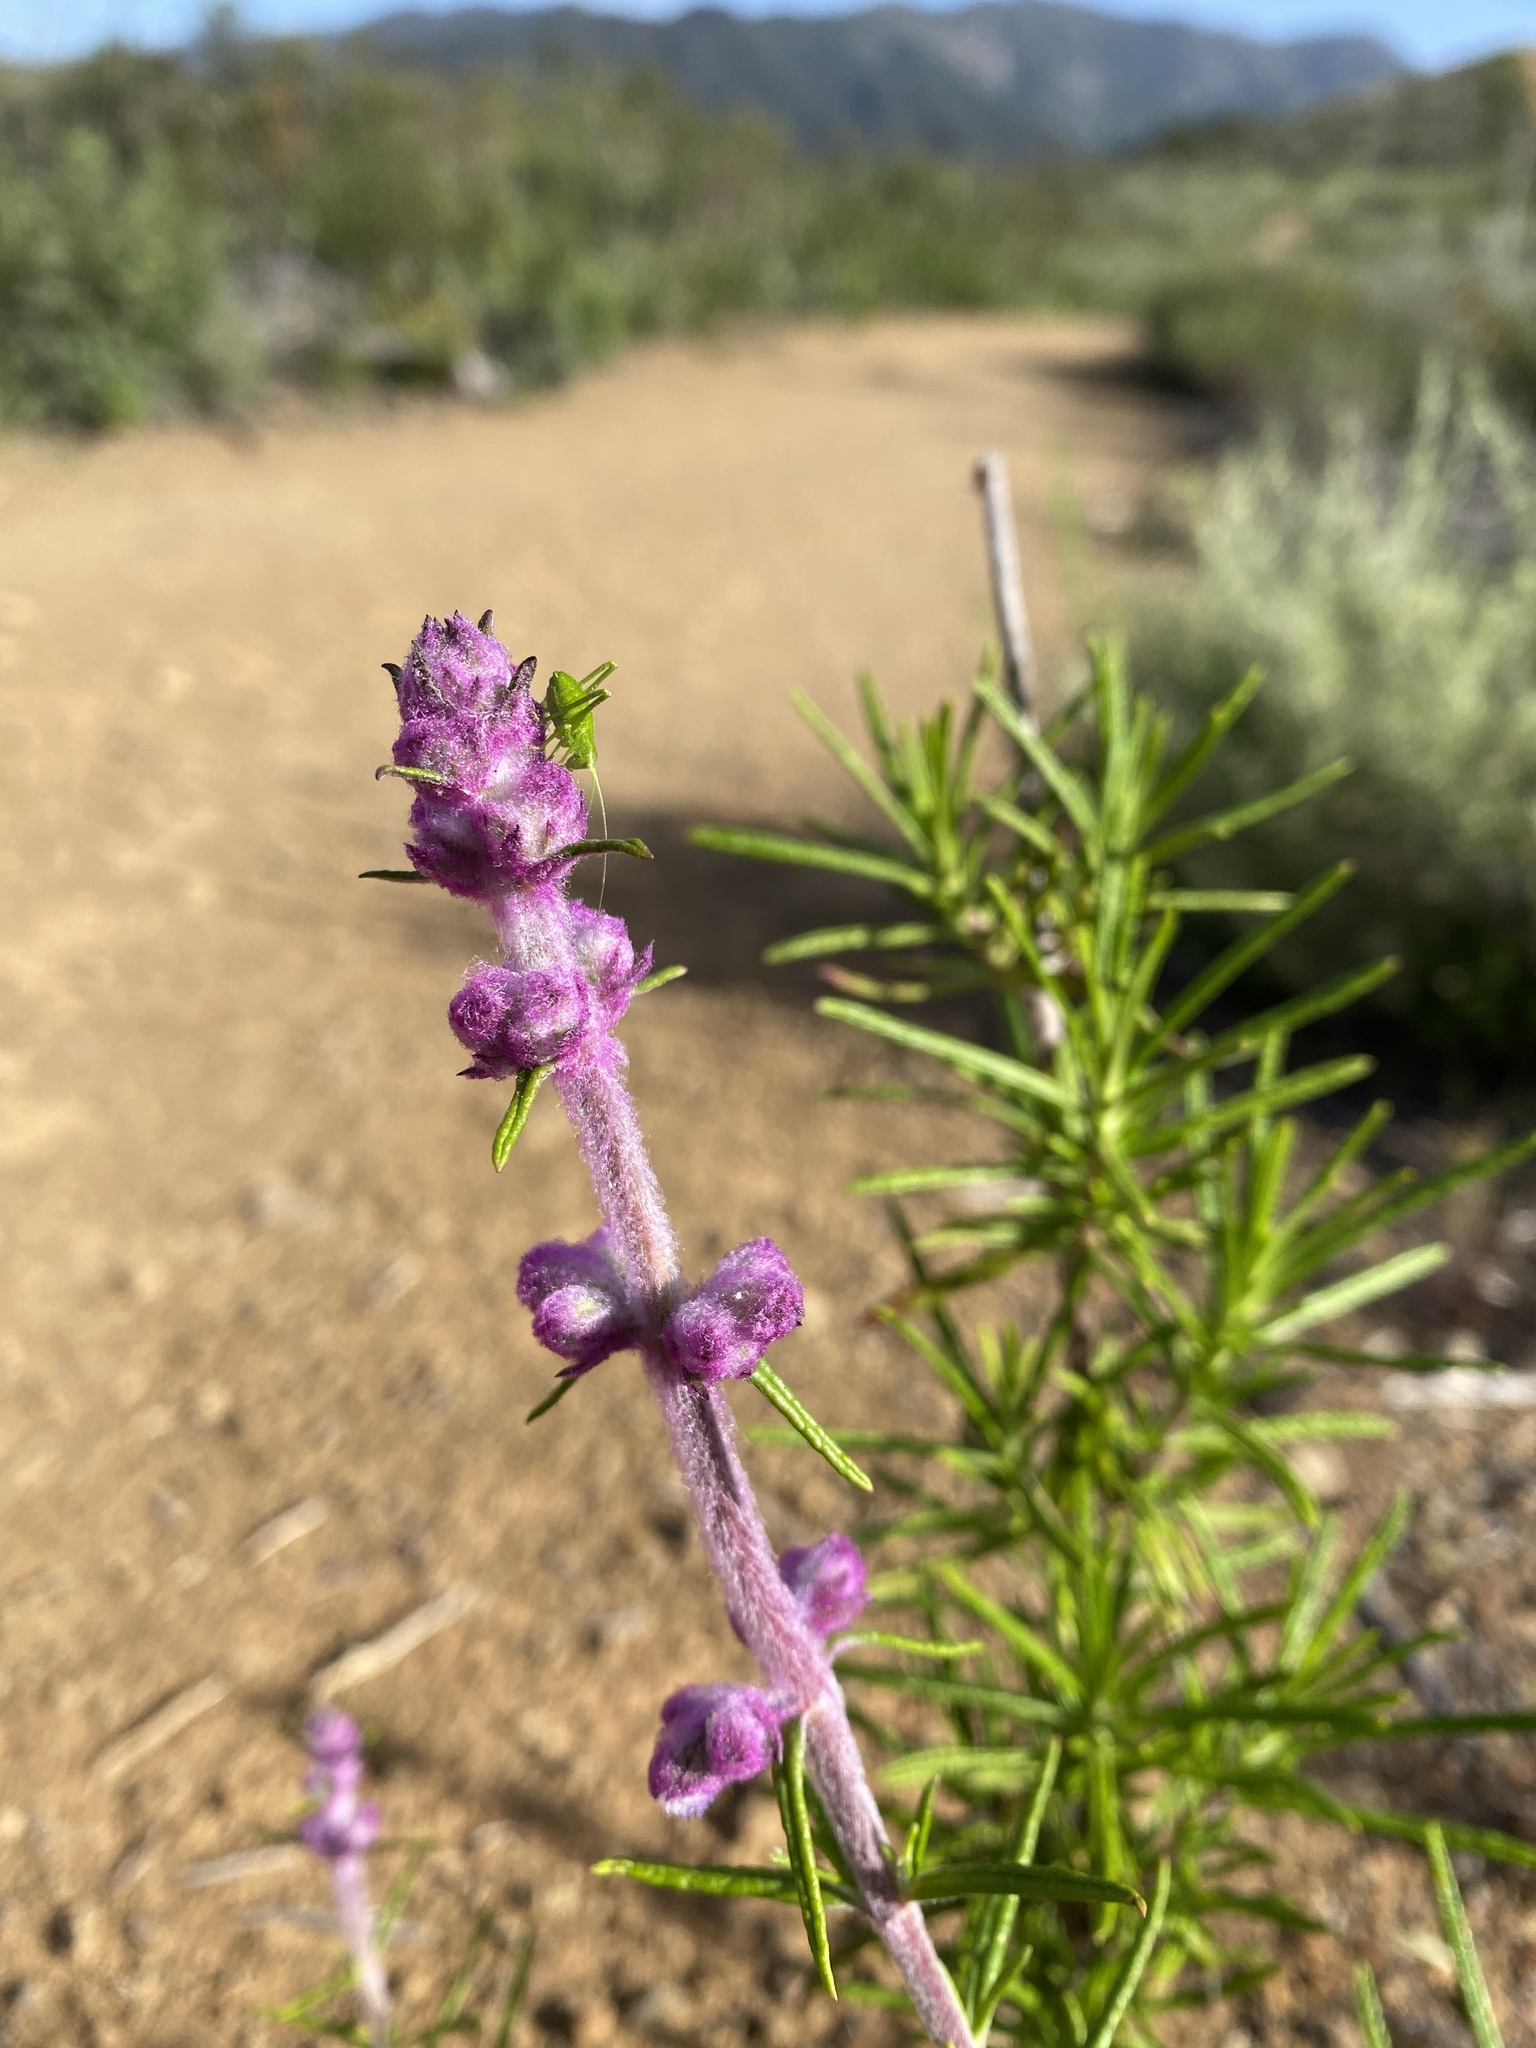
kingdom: Plantae
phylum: Tracheophyta
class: Magnoliopsida
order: Lamiales
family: Lamiaceae
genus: Trichostema
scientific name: Trichostema lanatum
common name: Woolly bluecurls
